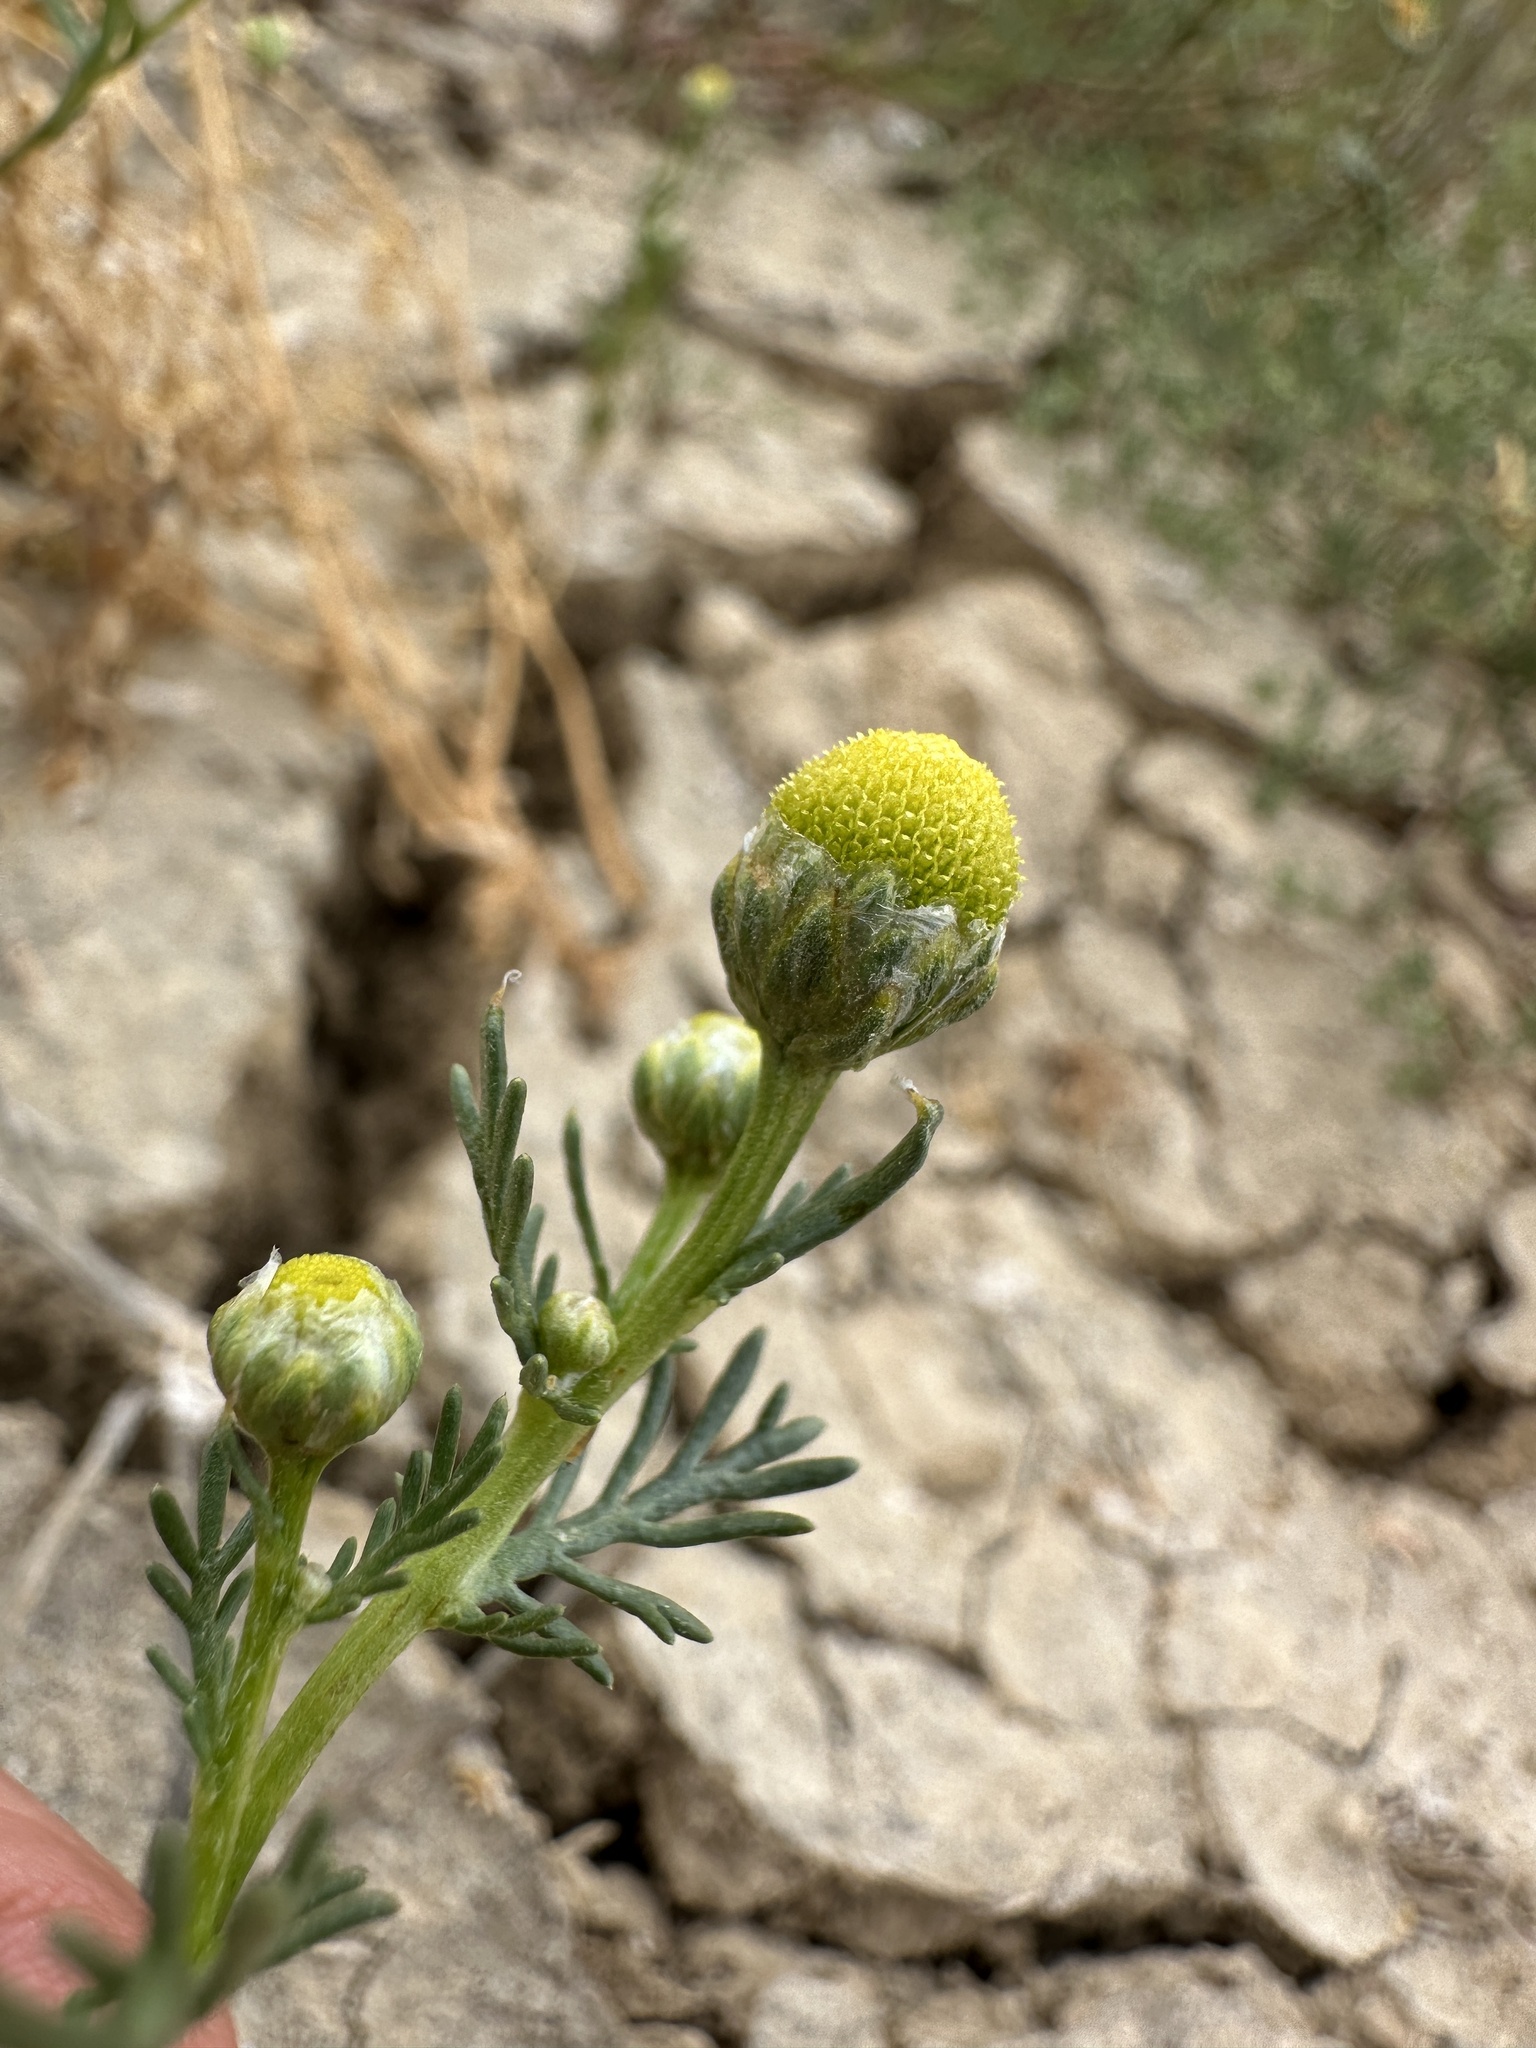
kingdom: Plantae
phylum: Tracheophyta
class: Magnoliopsida
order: Asterales
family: Asteraceae
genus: Matricaria
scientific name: Matricaria discoidea
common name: Disc mayweed
